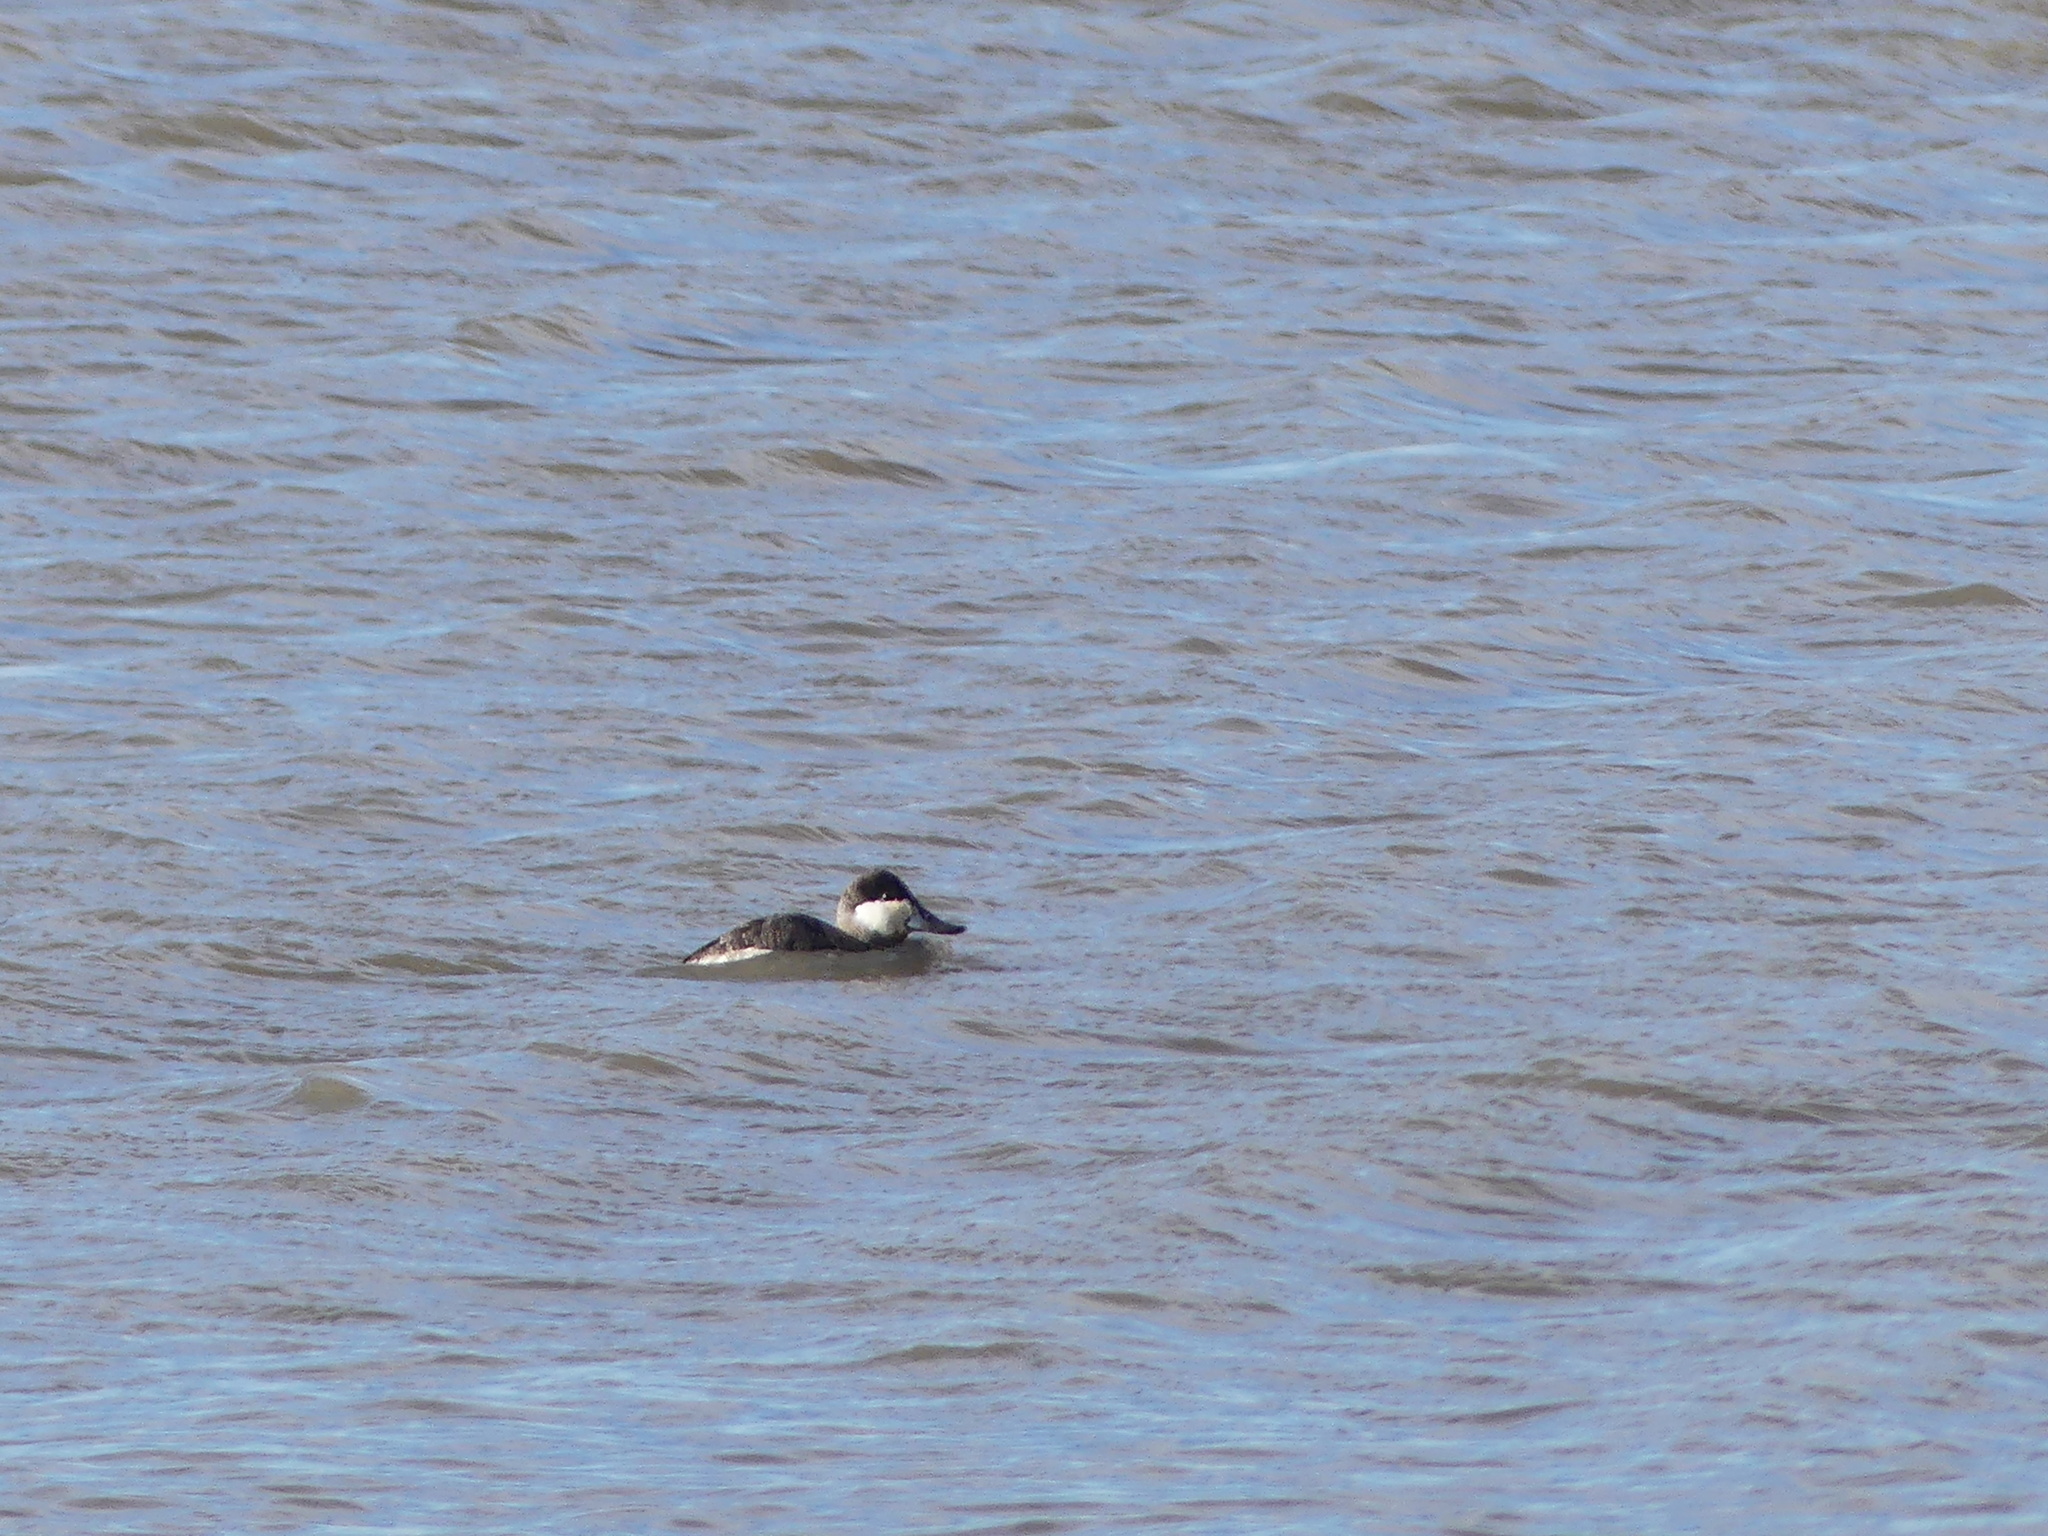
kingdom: Animalia
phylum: Chordata
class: Aves
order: Anseriformes
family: Anatidae
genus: Oxyura
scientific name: Oxyura jamaicensis
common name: Ruddy duck
